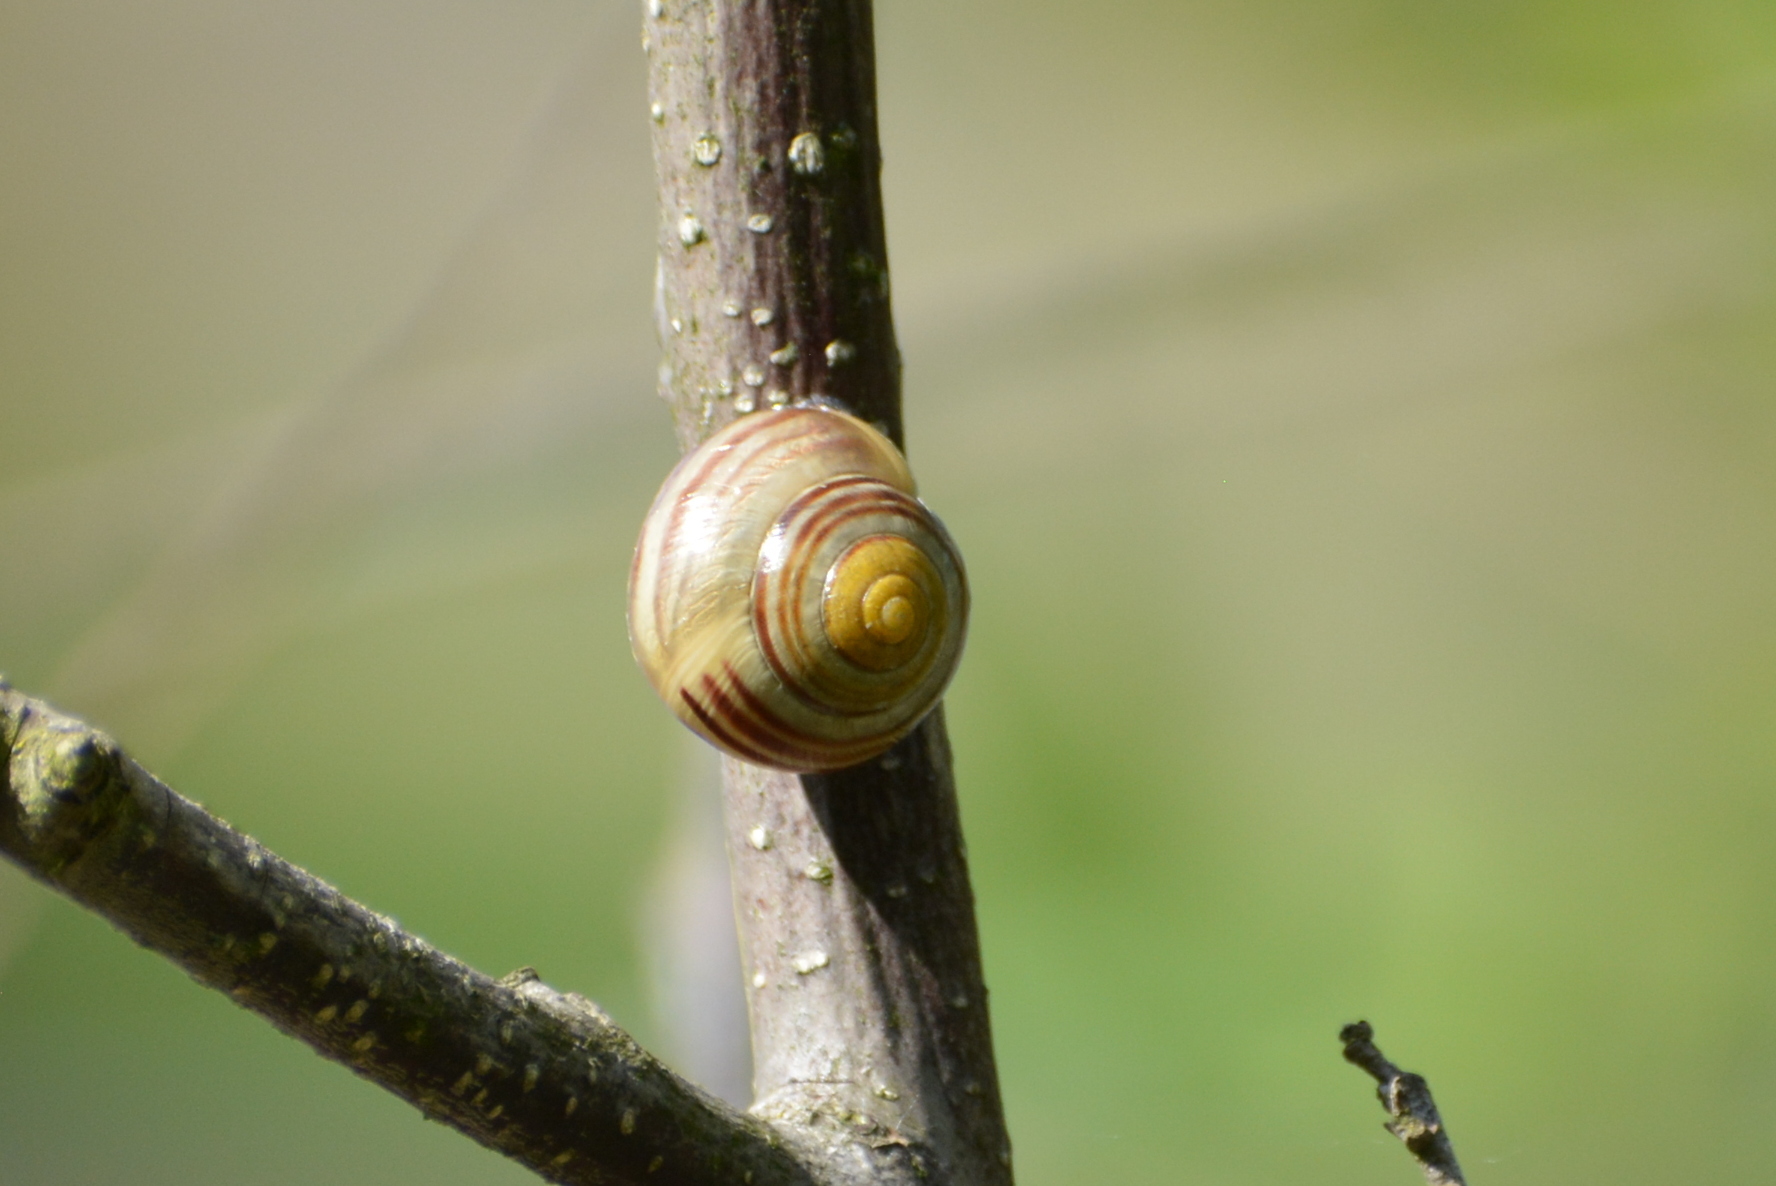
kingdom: Animalia
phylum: Mollusca
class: Gastropoda
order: Stylommatophora
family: Helicidae
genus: Cepaea
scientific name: Cepaea
